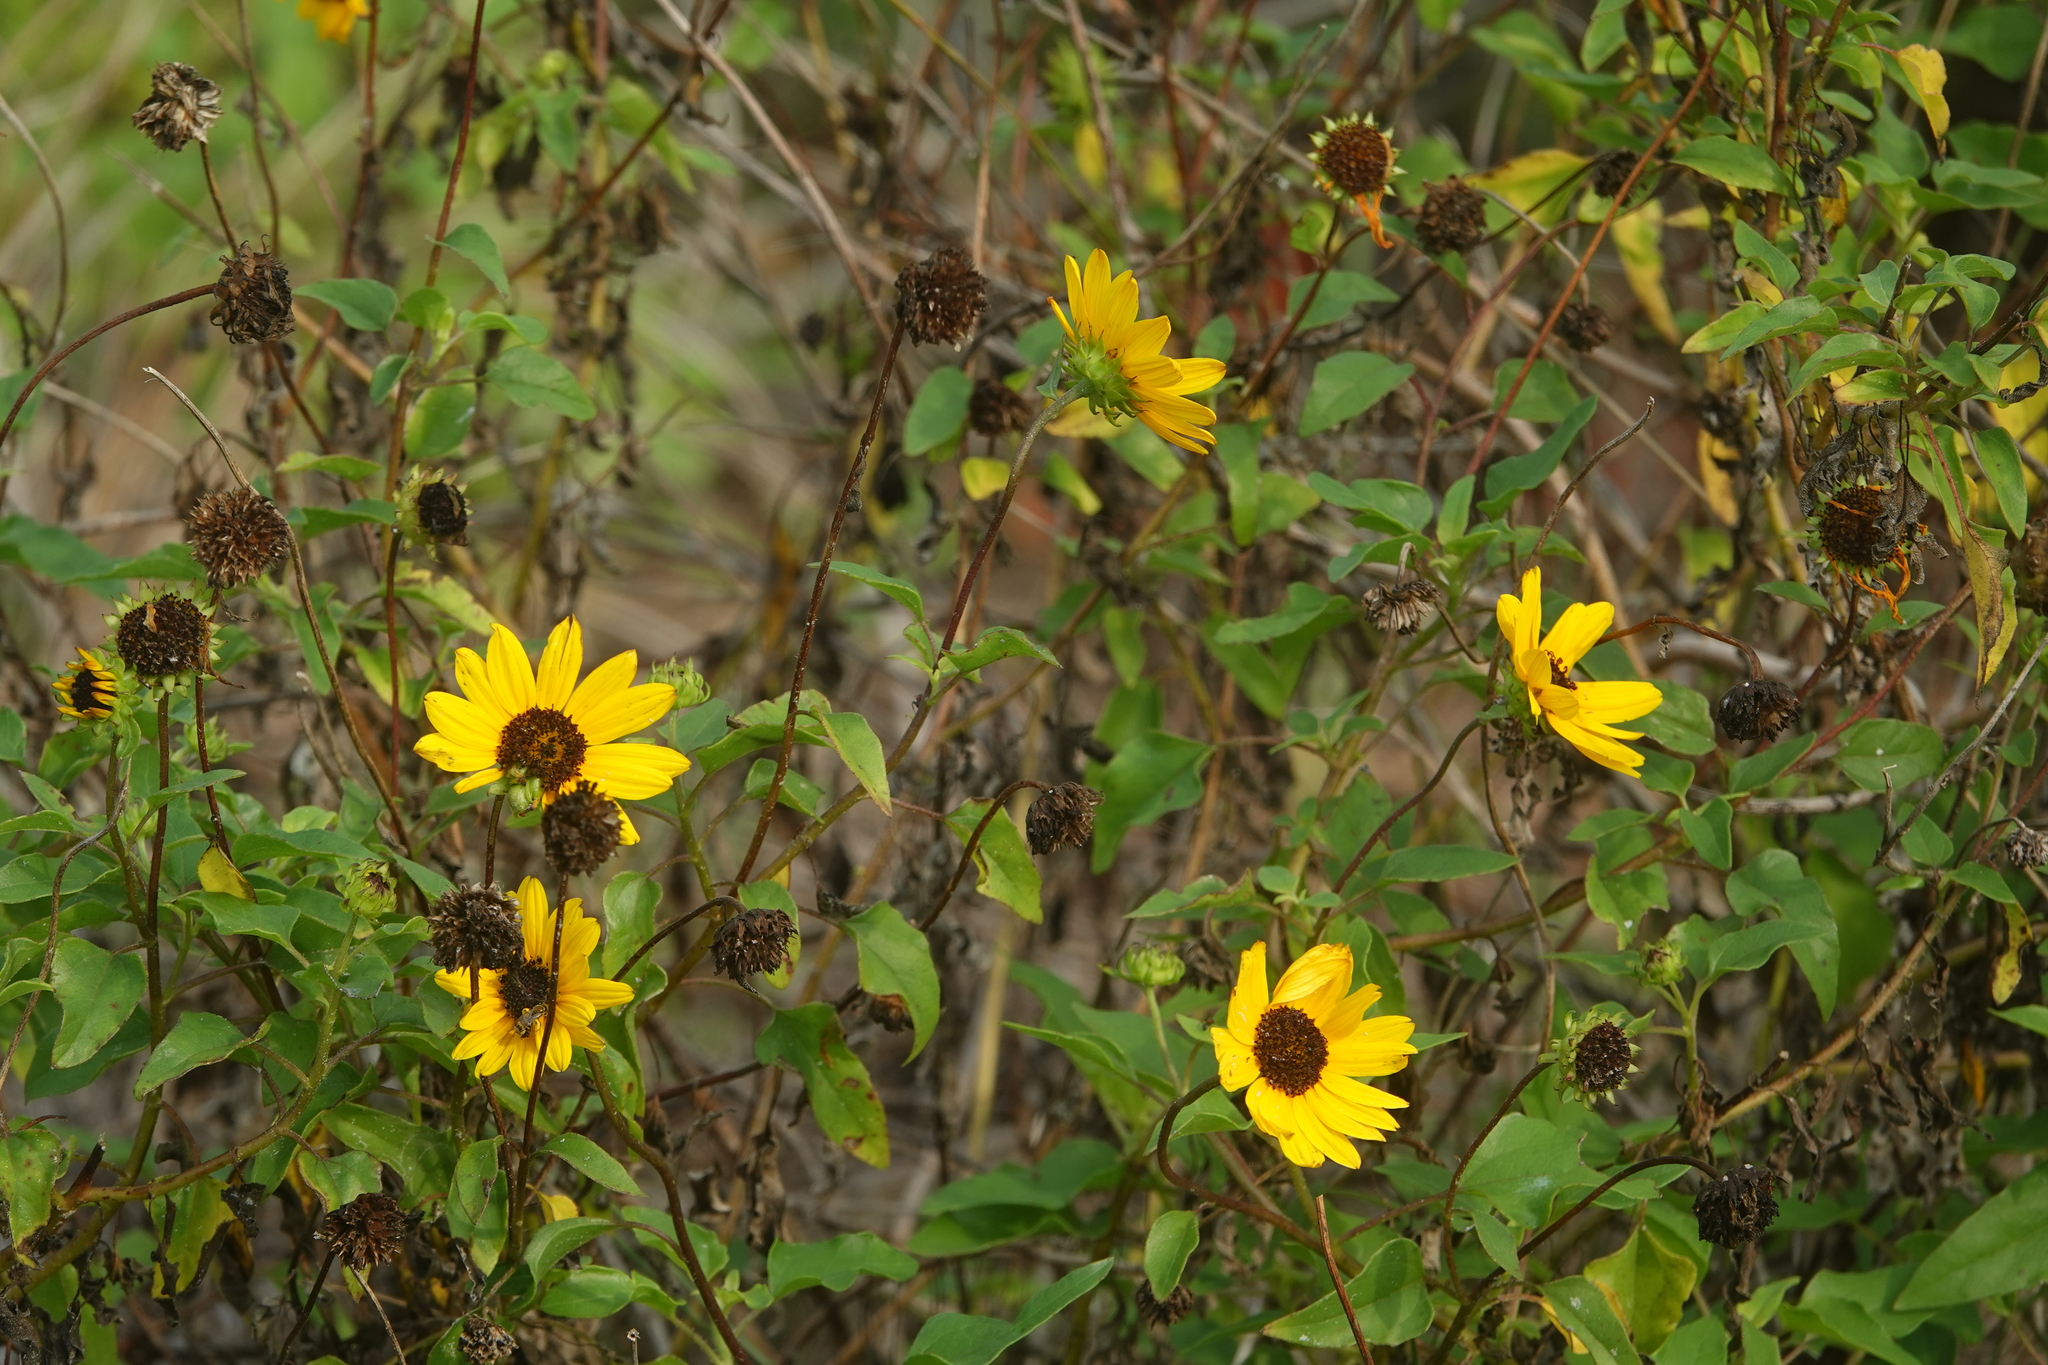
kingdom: Plantae
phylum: Tracheophyta
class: Magnoliopsida
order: Asterales
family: Asteraceae
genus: Helianthus
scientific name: Helianthus debilis
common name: Weak sunflower
